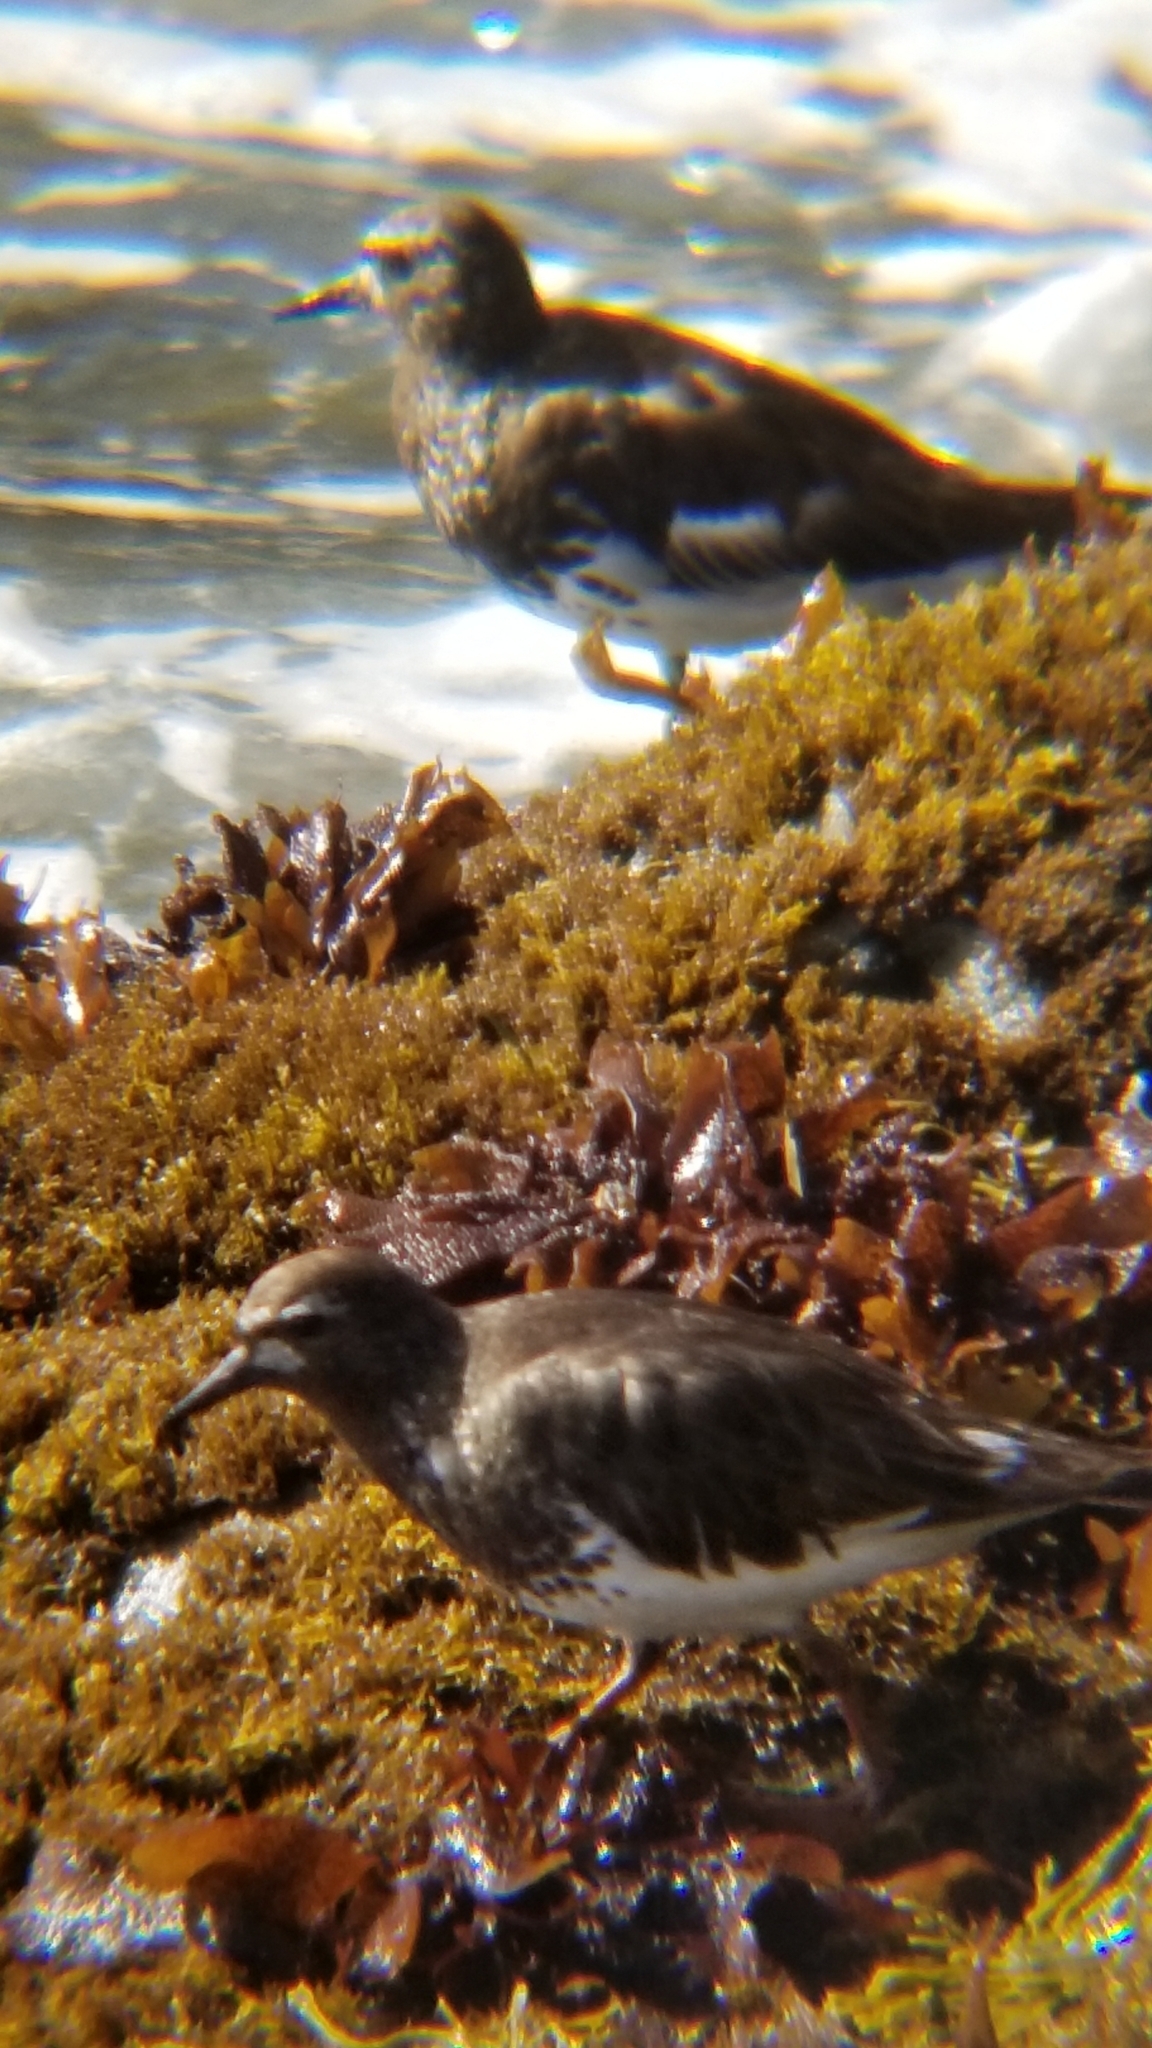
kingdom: Animalia
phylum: Chordata
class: Aves
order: Charadriiformes
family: Scolopacidae
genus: Arenaria
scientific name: Arenaria melanocephala
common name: Black turnstone
